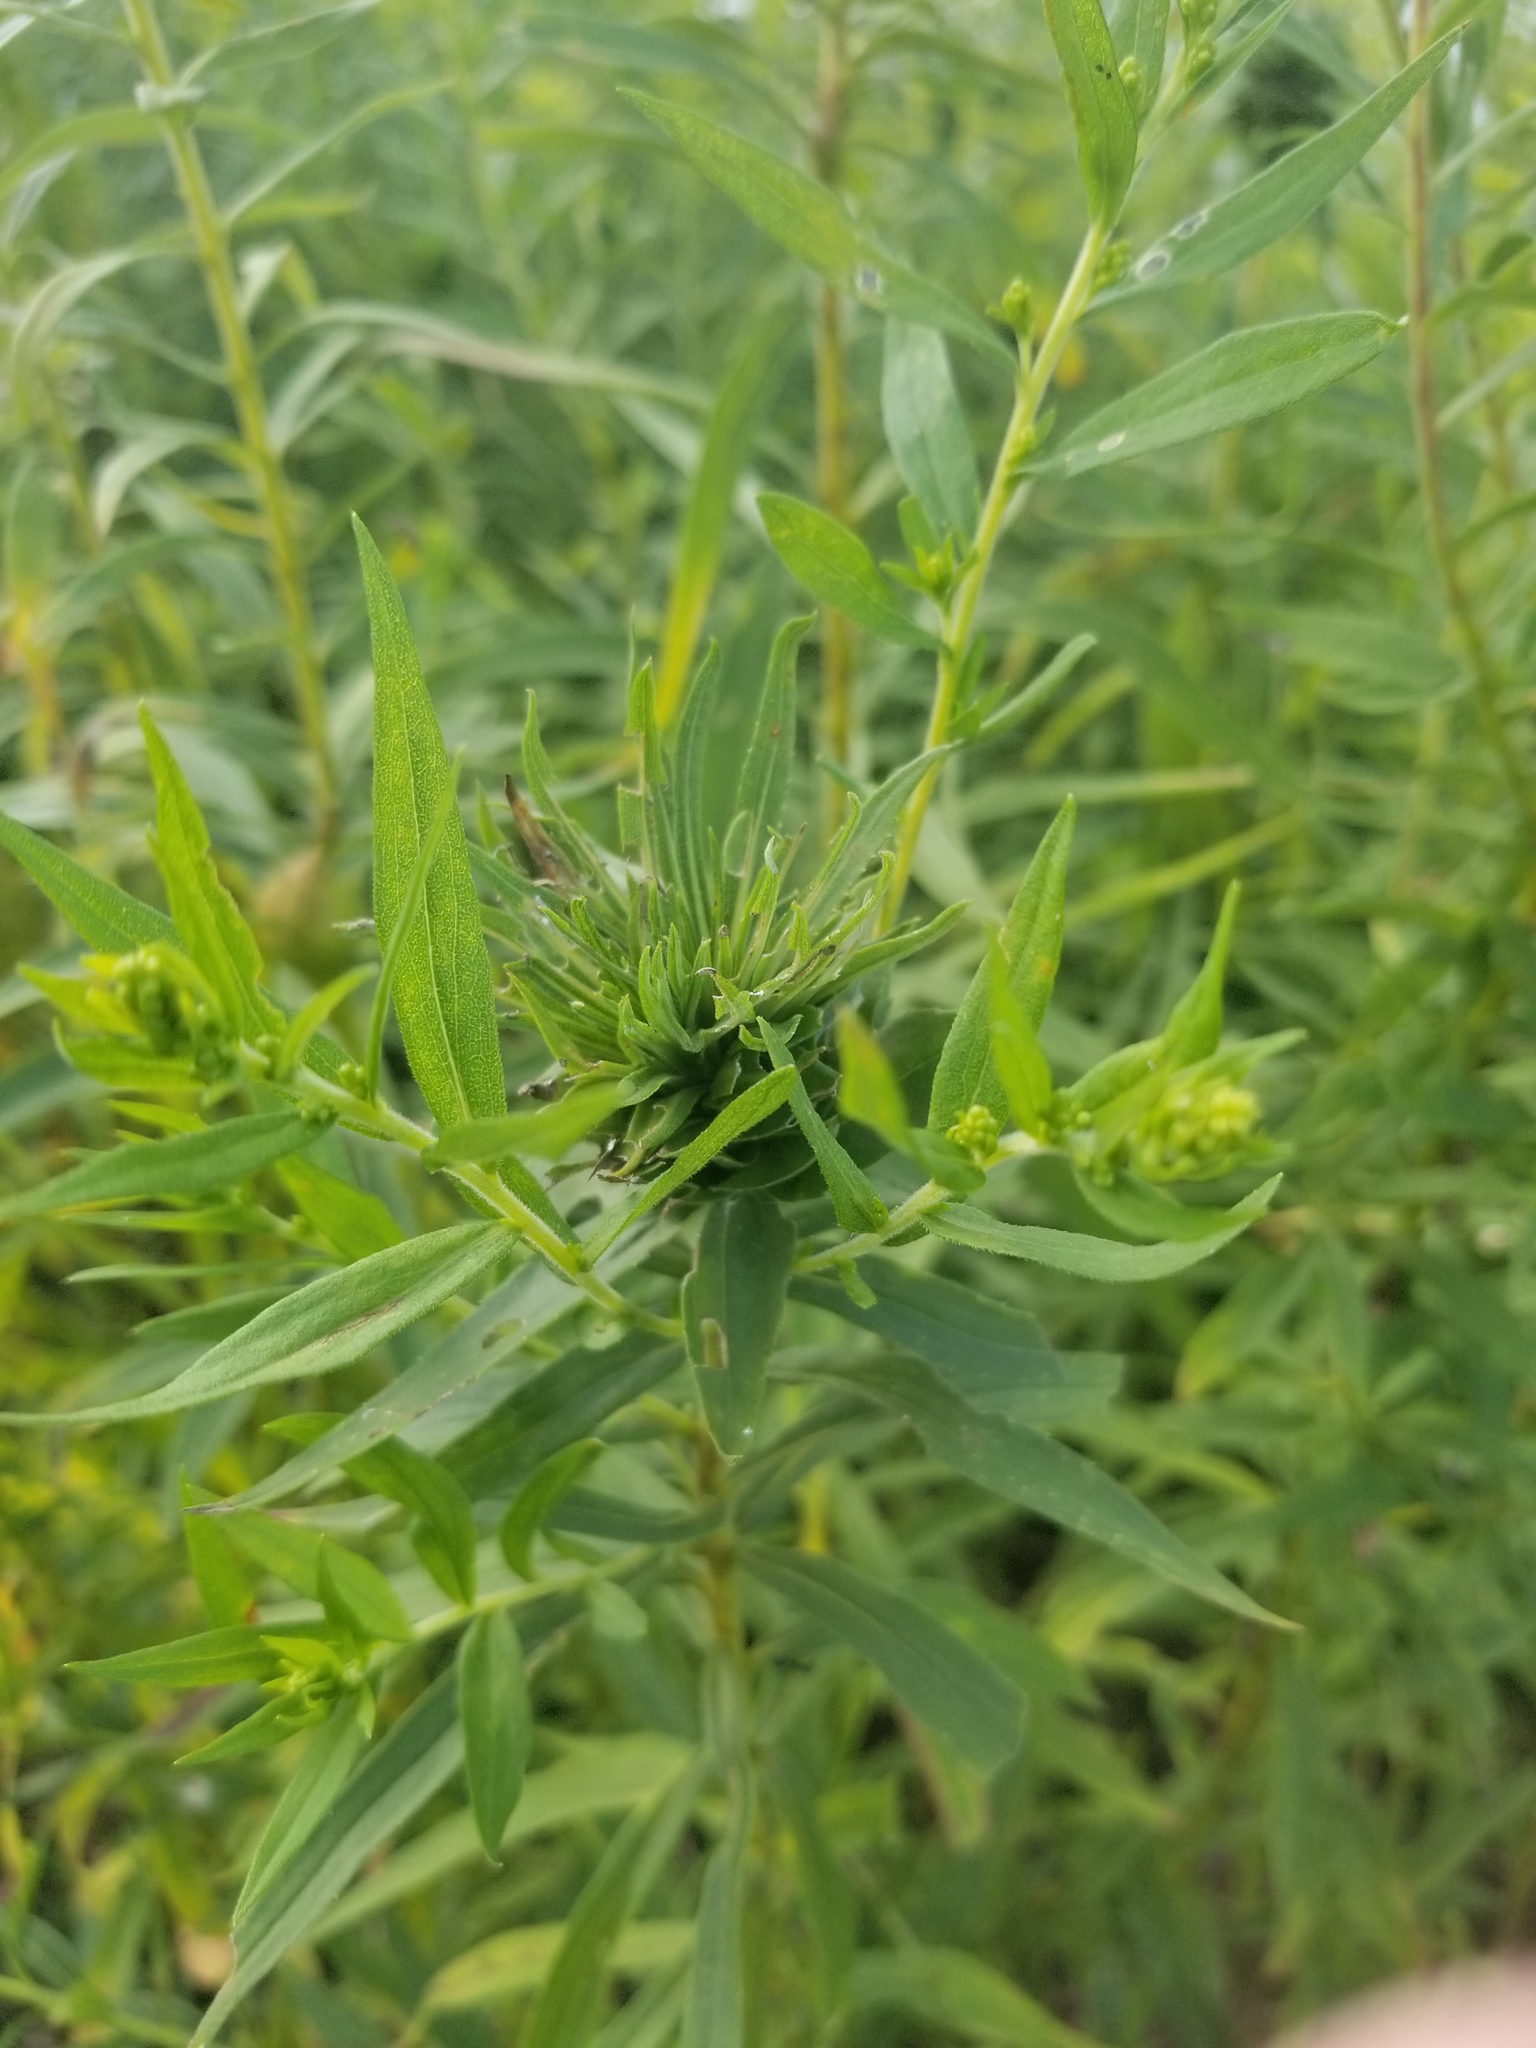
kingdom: Animalia
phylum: Arthropoda
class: Insecta
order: Diptera
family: Cecidomyiidae
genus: Rhopalomyia
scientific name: Rhopalomyia solidaginis
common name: Goldenrod bunch gall midge
